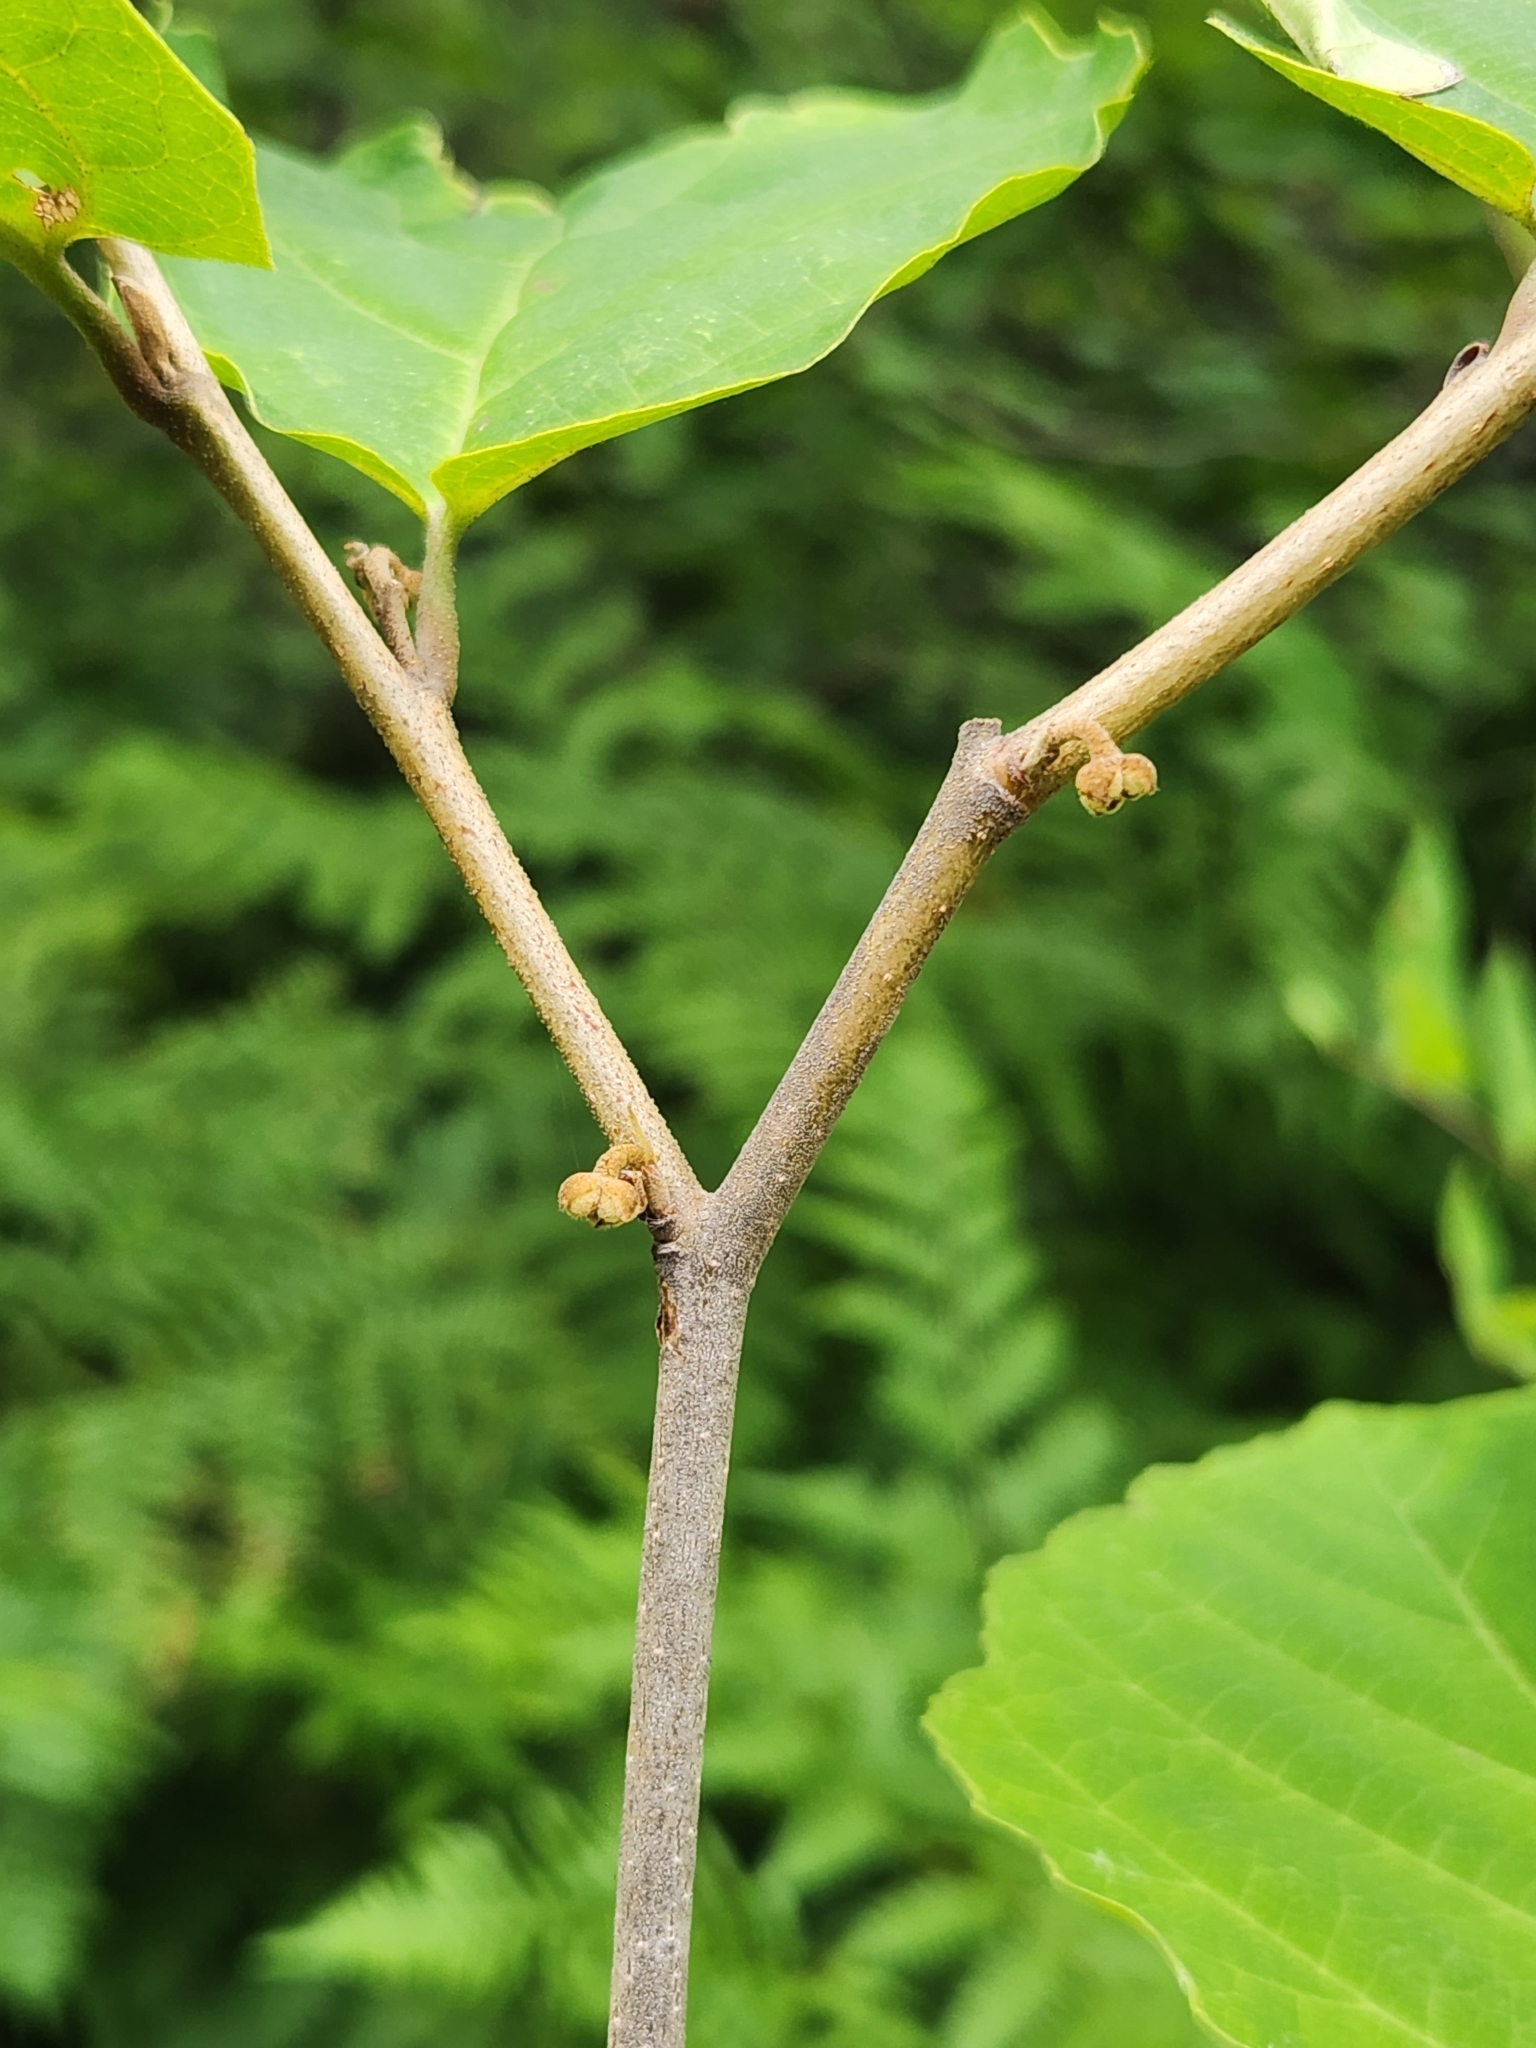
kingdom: Plantae
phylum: Tracheophyta
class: Magnoliopsida
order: Saxifragales
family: Hamamelidaceae
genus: Hamamelis
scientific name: Hamamelis virginiana
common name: Witch-hazel
